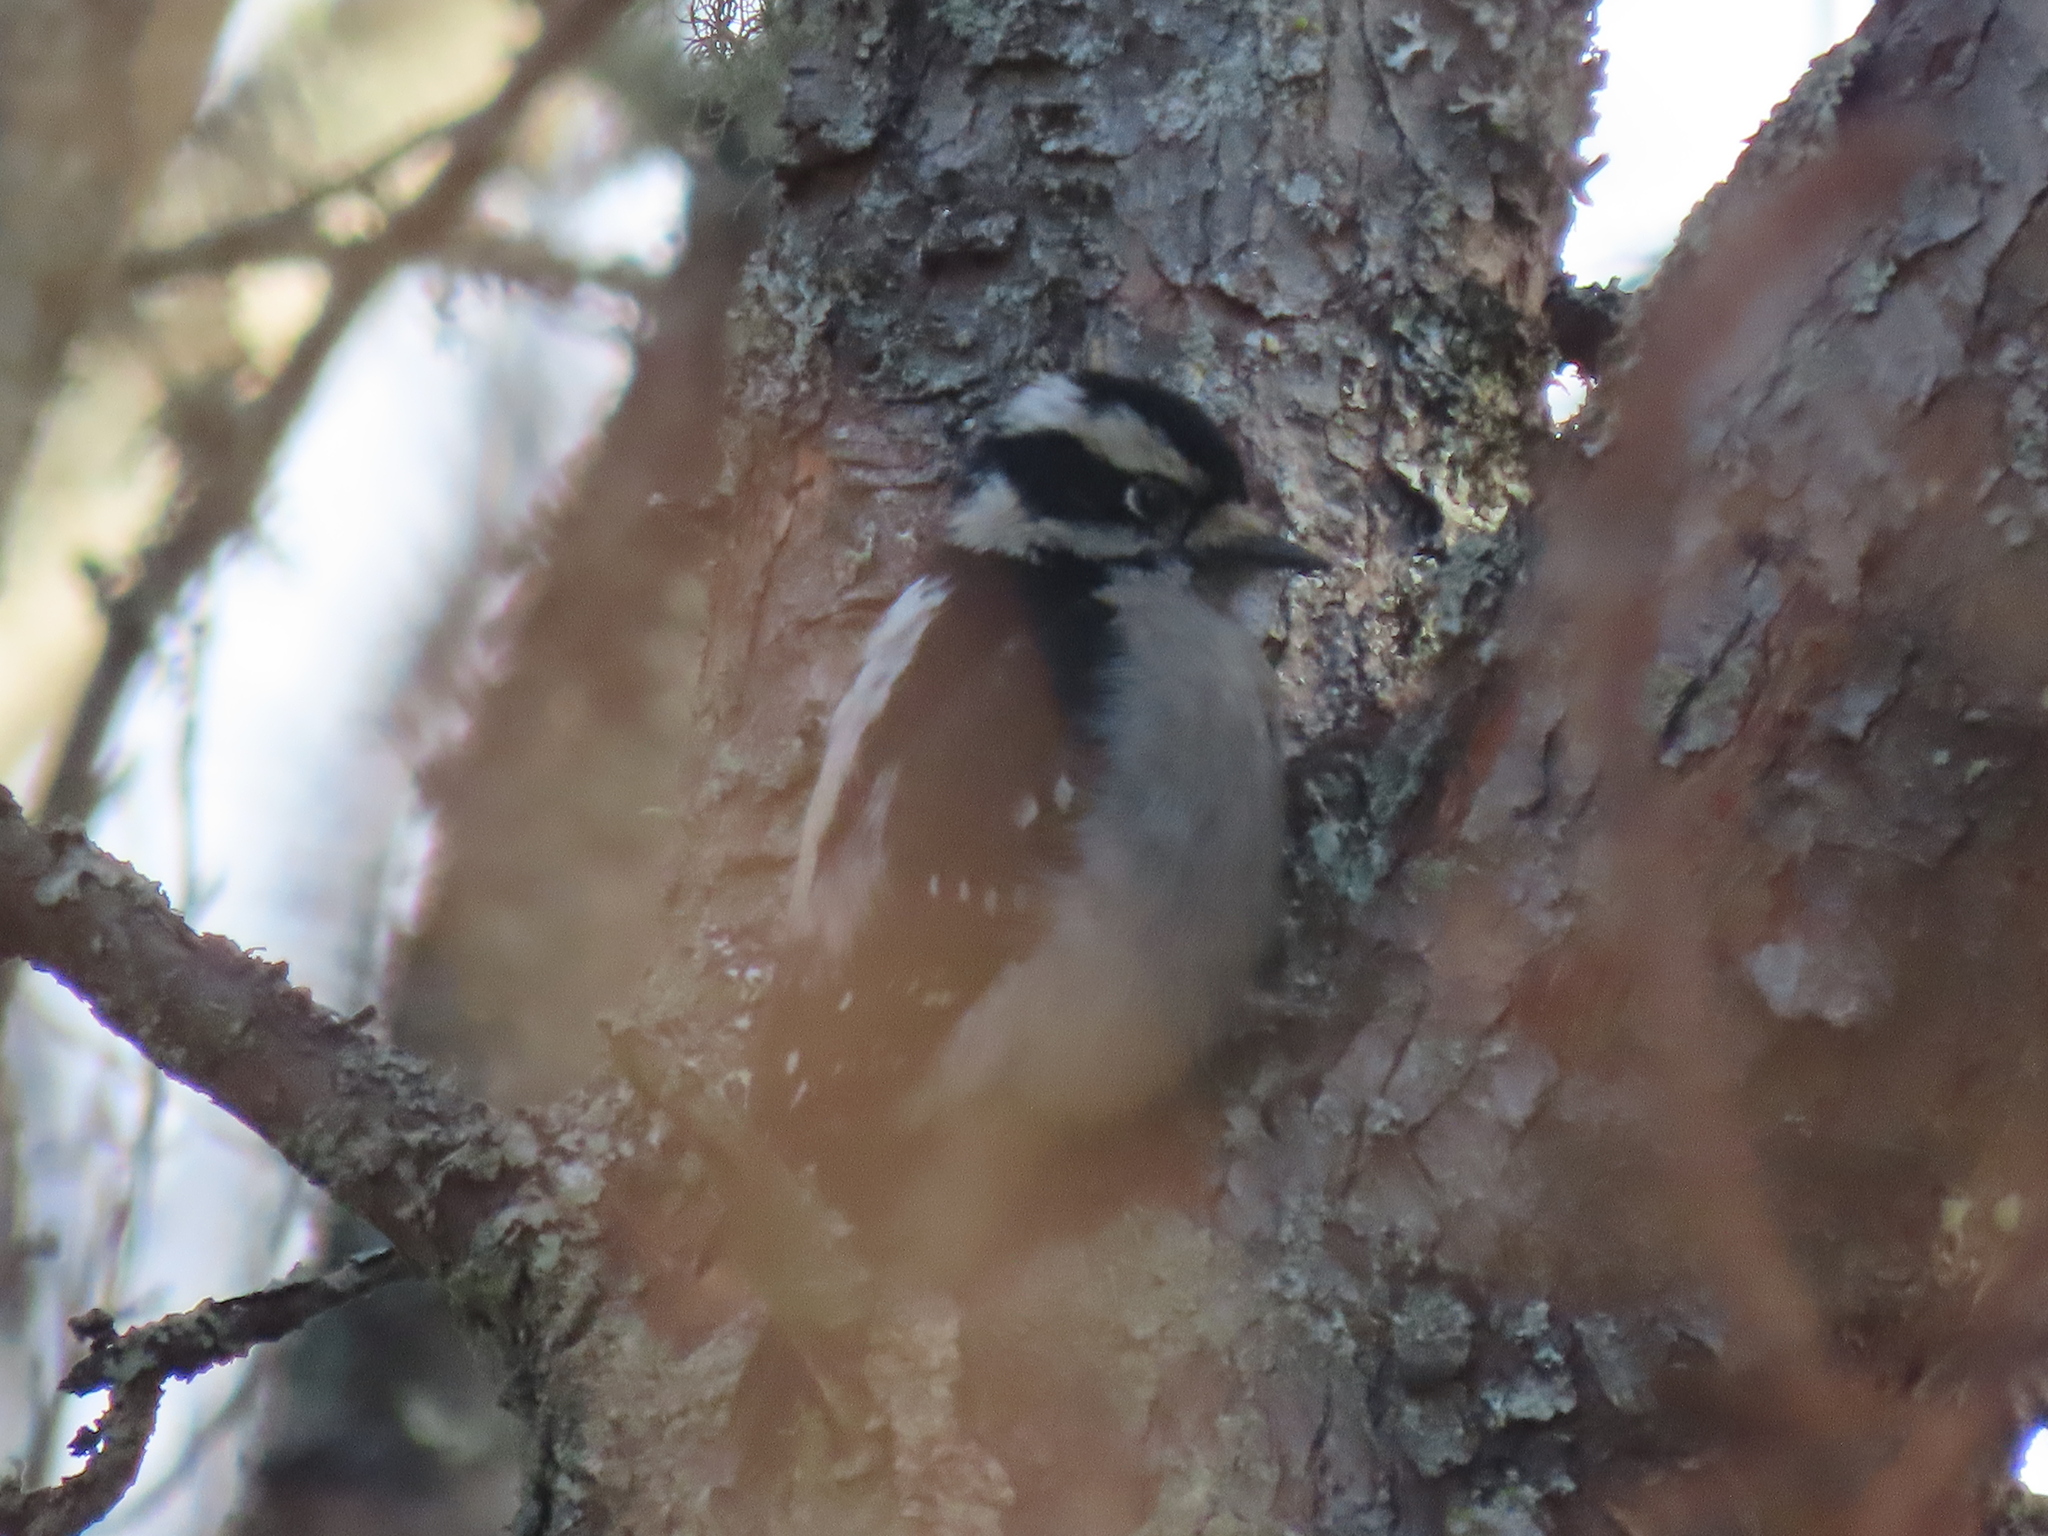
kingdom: Animalia
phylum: Chordata
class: Aves
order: Piciformes
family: Picidae
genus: Dryobates
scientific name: Dryobates pubescens
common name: Downy woodpecker
